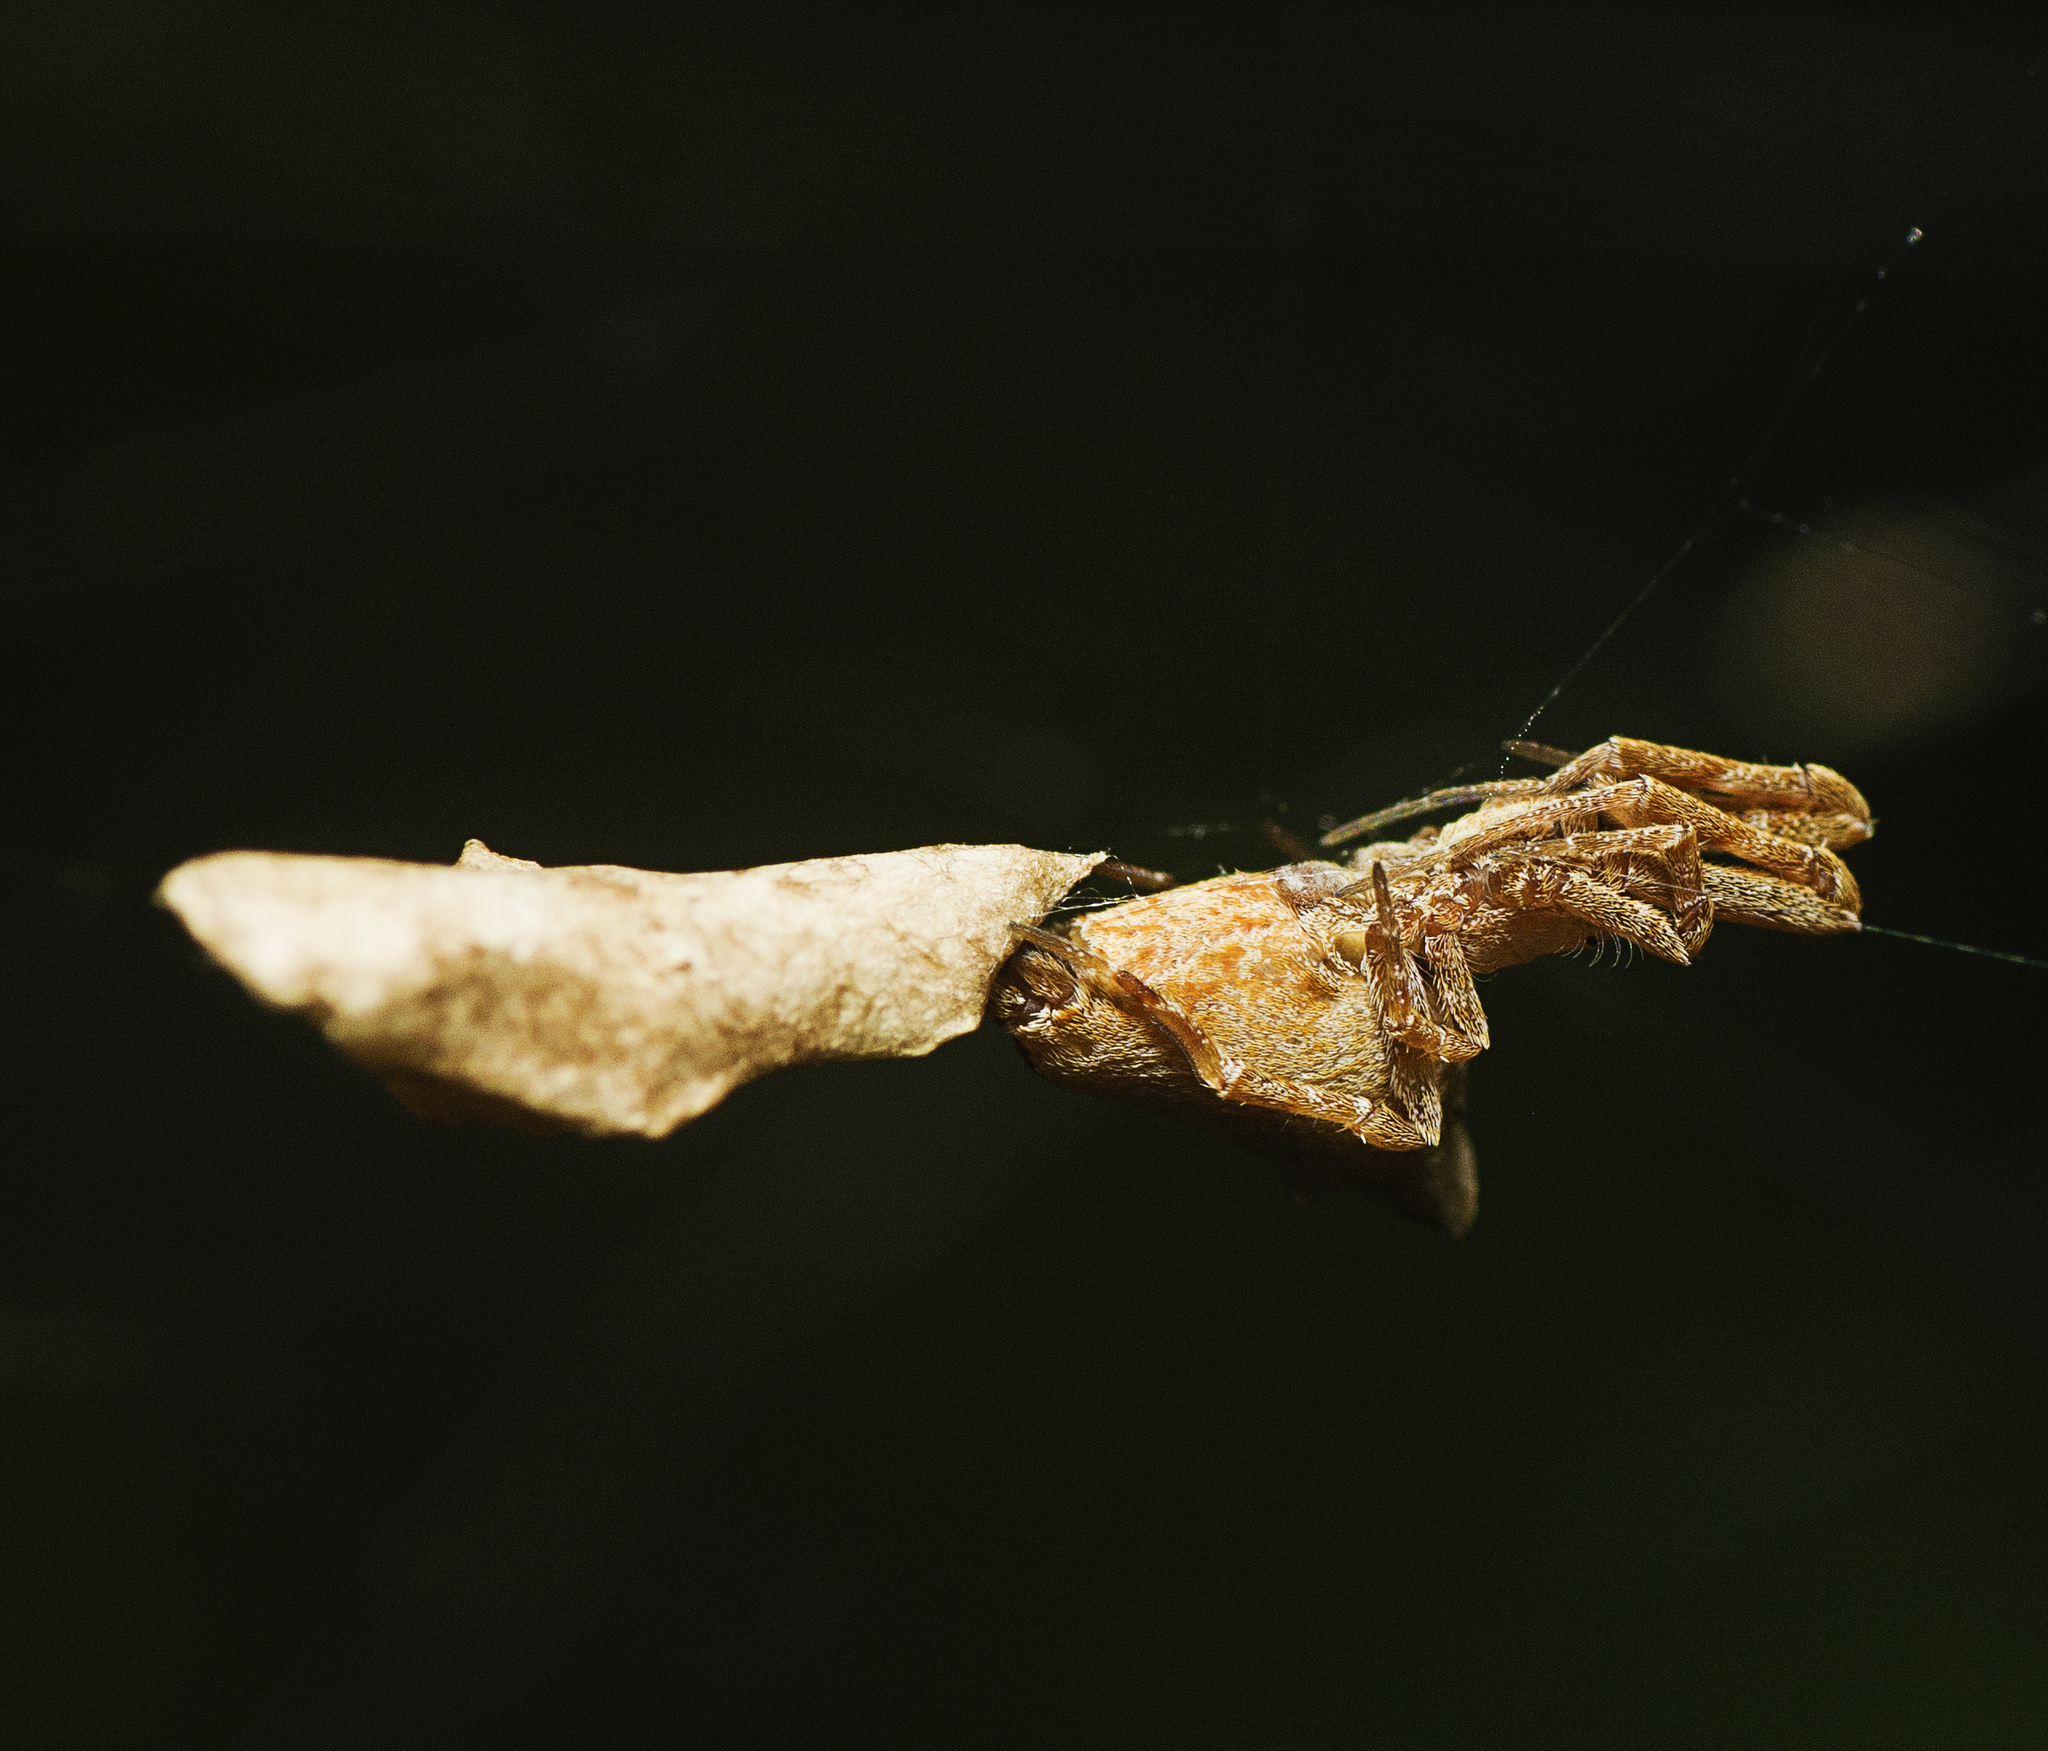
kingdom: Animalia
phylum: Arthropoda
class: Arachnida
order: Araneae
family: Uloboridae
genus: Philoponella
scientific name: Philoponella congregabilis
